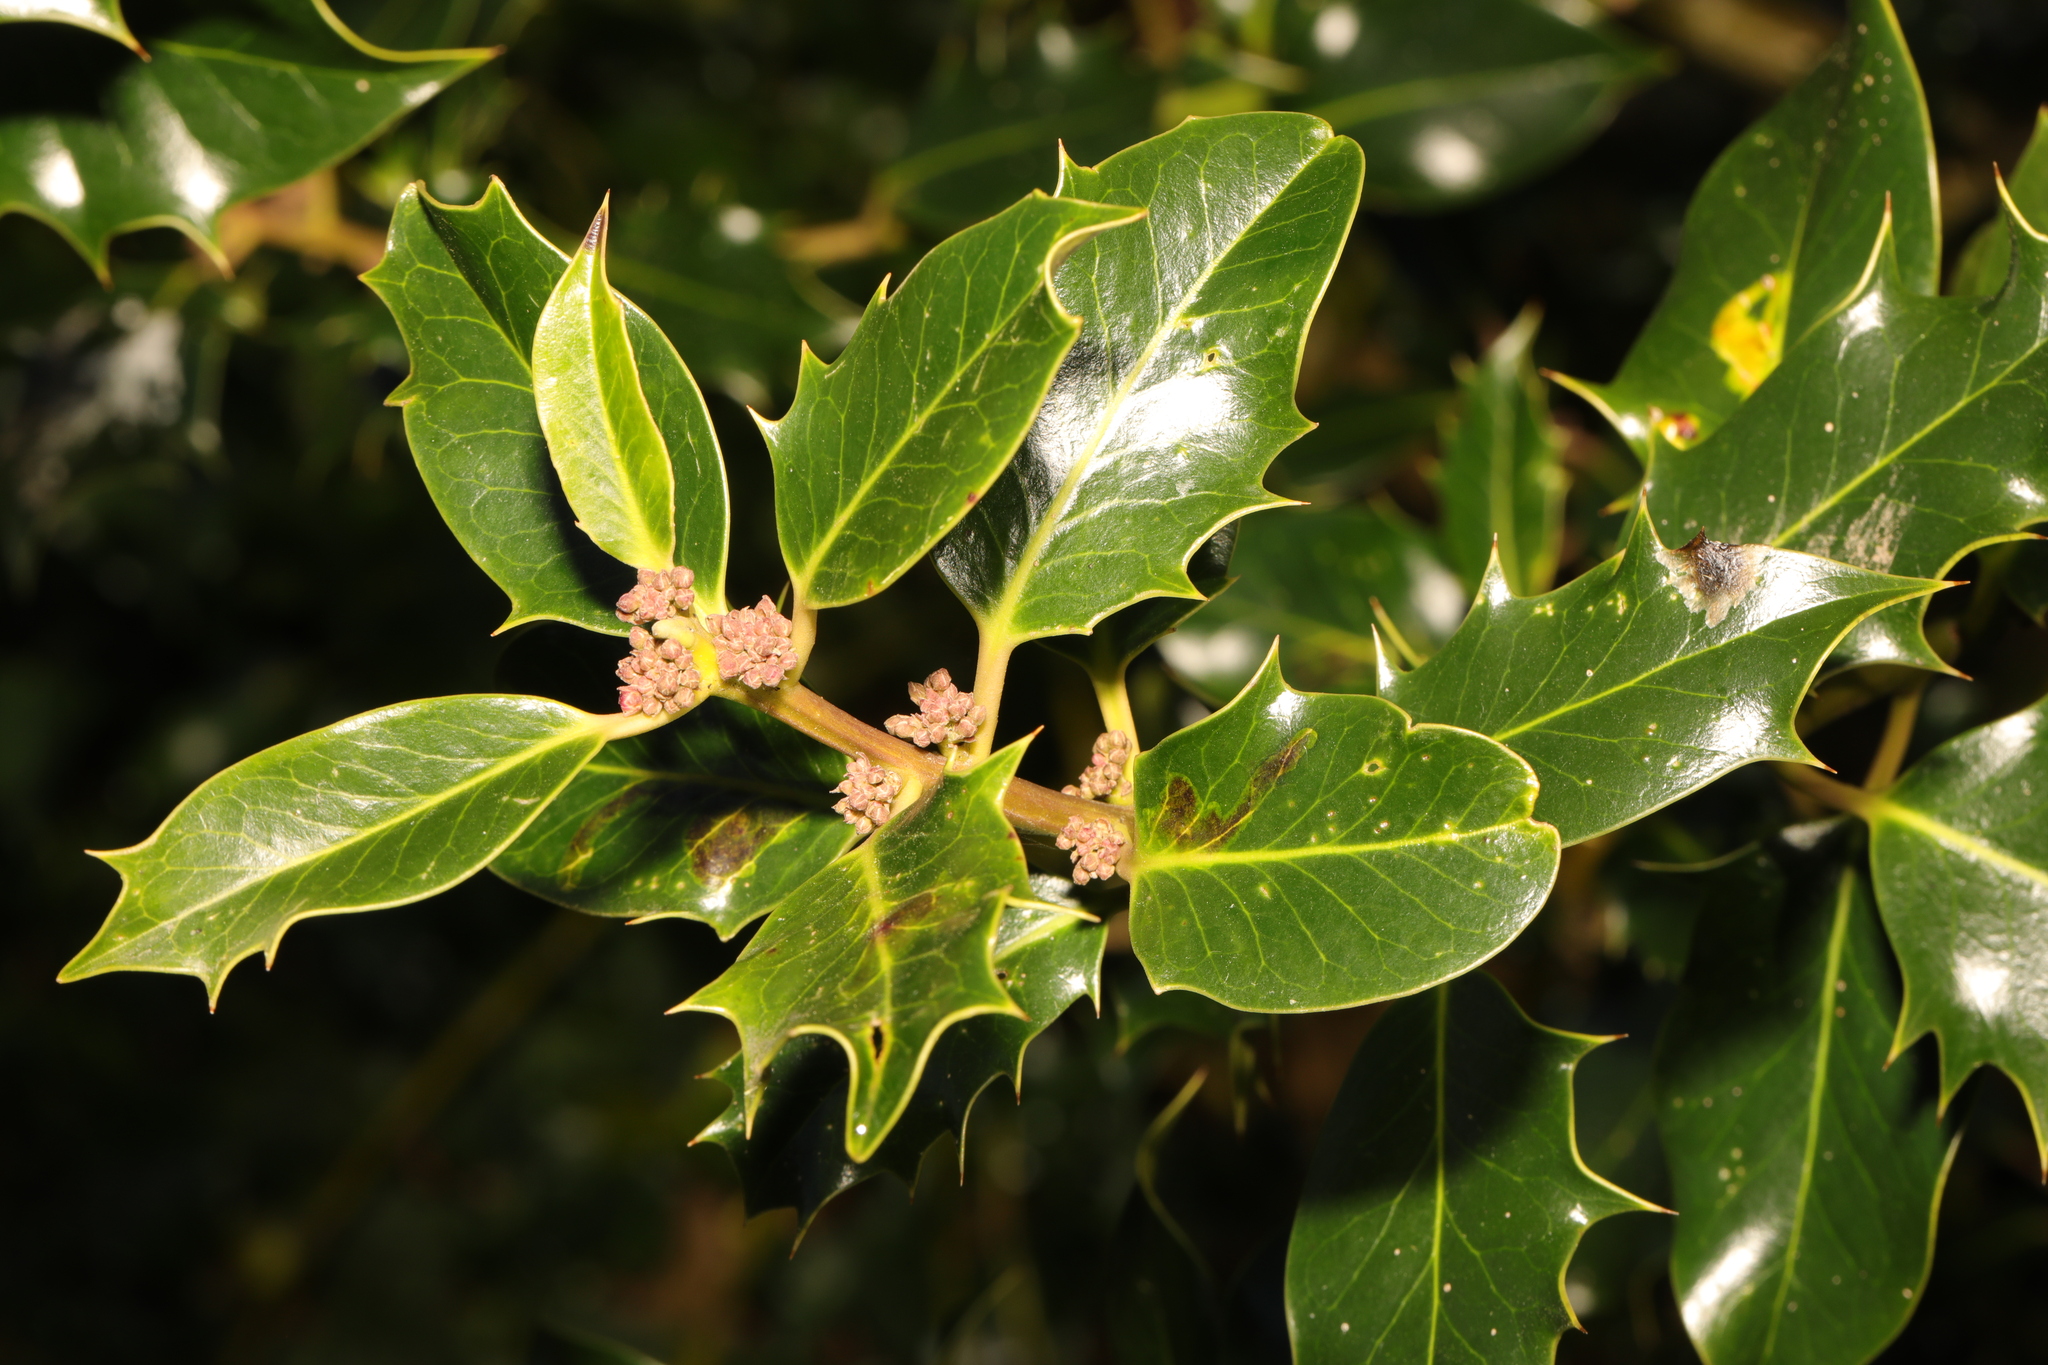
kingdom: Plantae
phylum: Tracheophyta
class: Magnoliopsida
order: Aquifoliales
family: Aquifoliaceae
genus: Ilex
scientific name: Ilex aquifolium
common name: English holly
